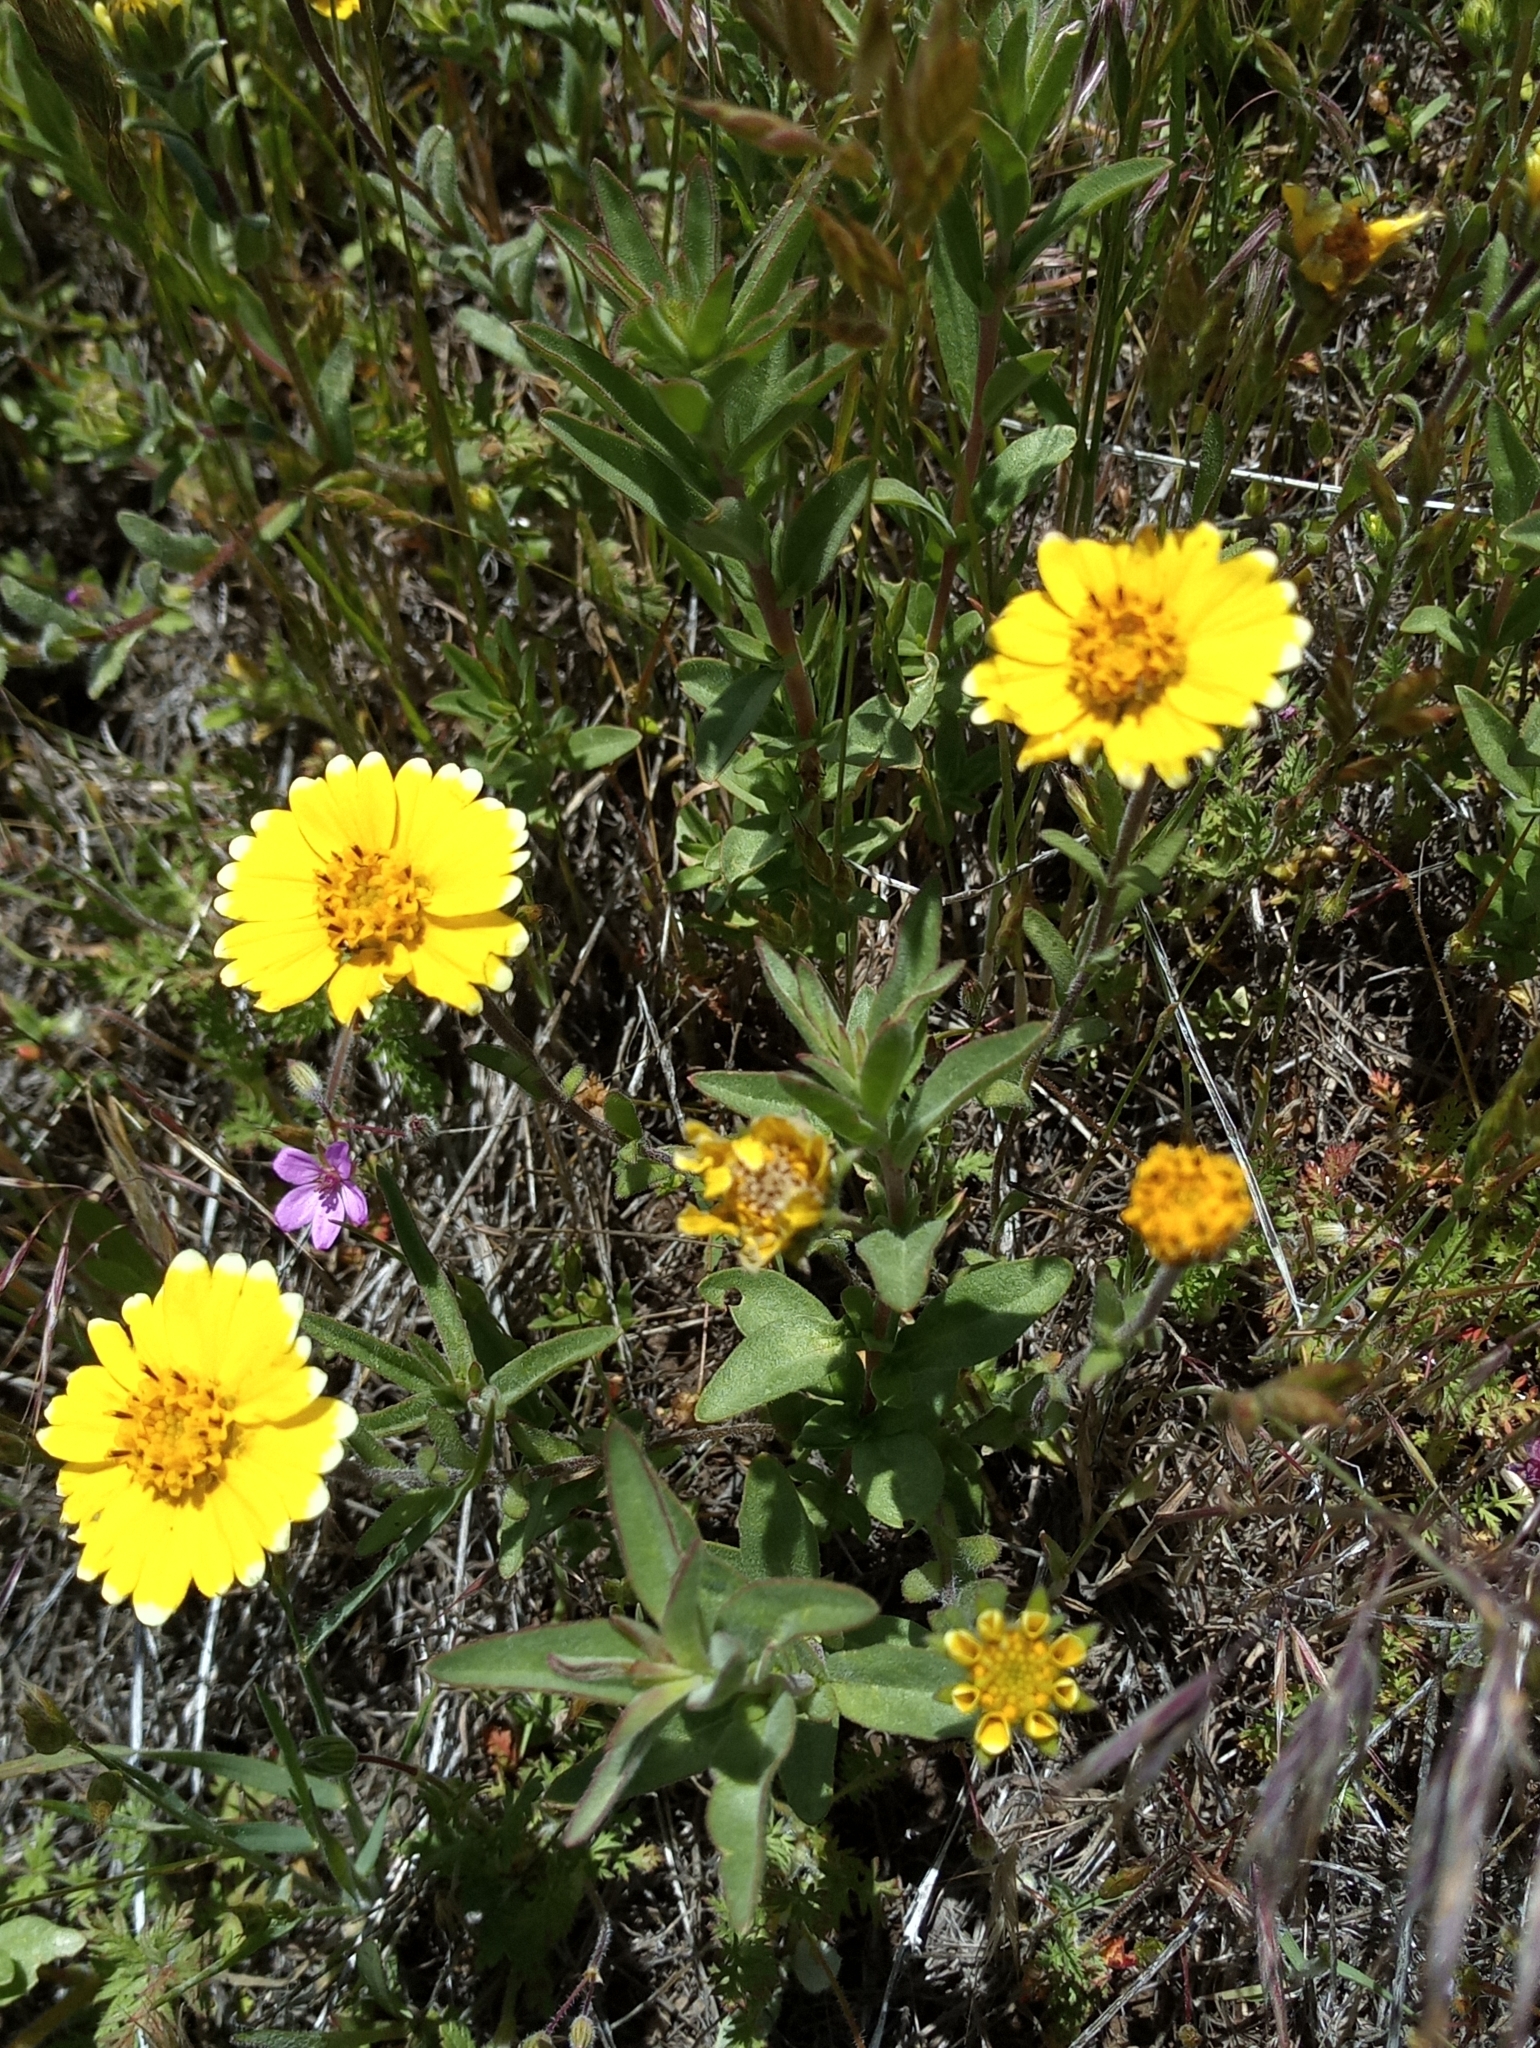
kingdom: Plantae
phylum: Tracheophyta
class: Magnoliopsida
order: Asterales
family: Asteraceae
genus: Layia
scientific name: Layia platyglossa
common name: Tidy-tips
